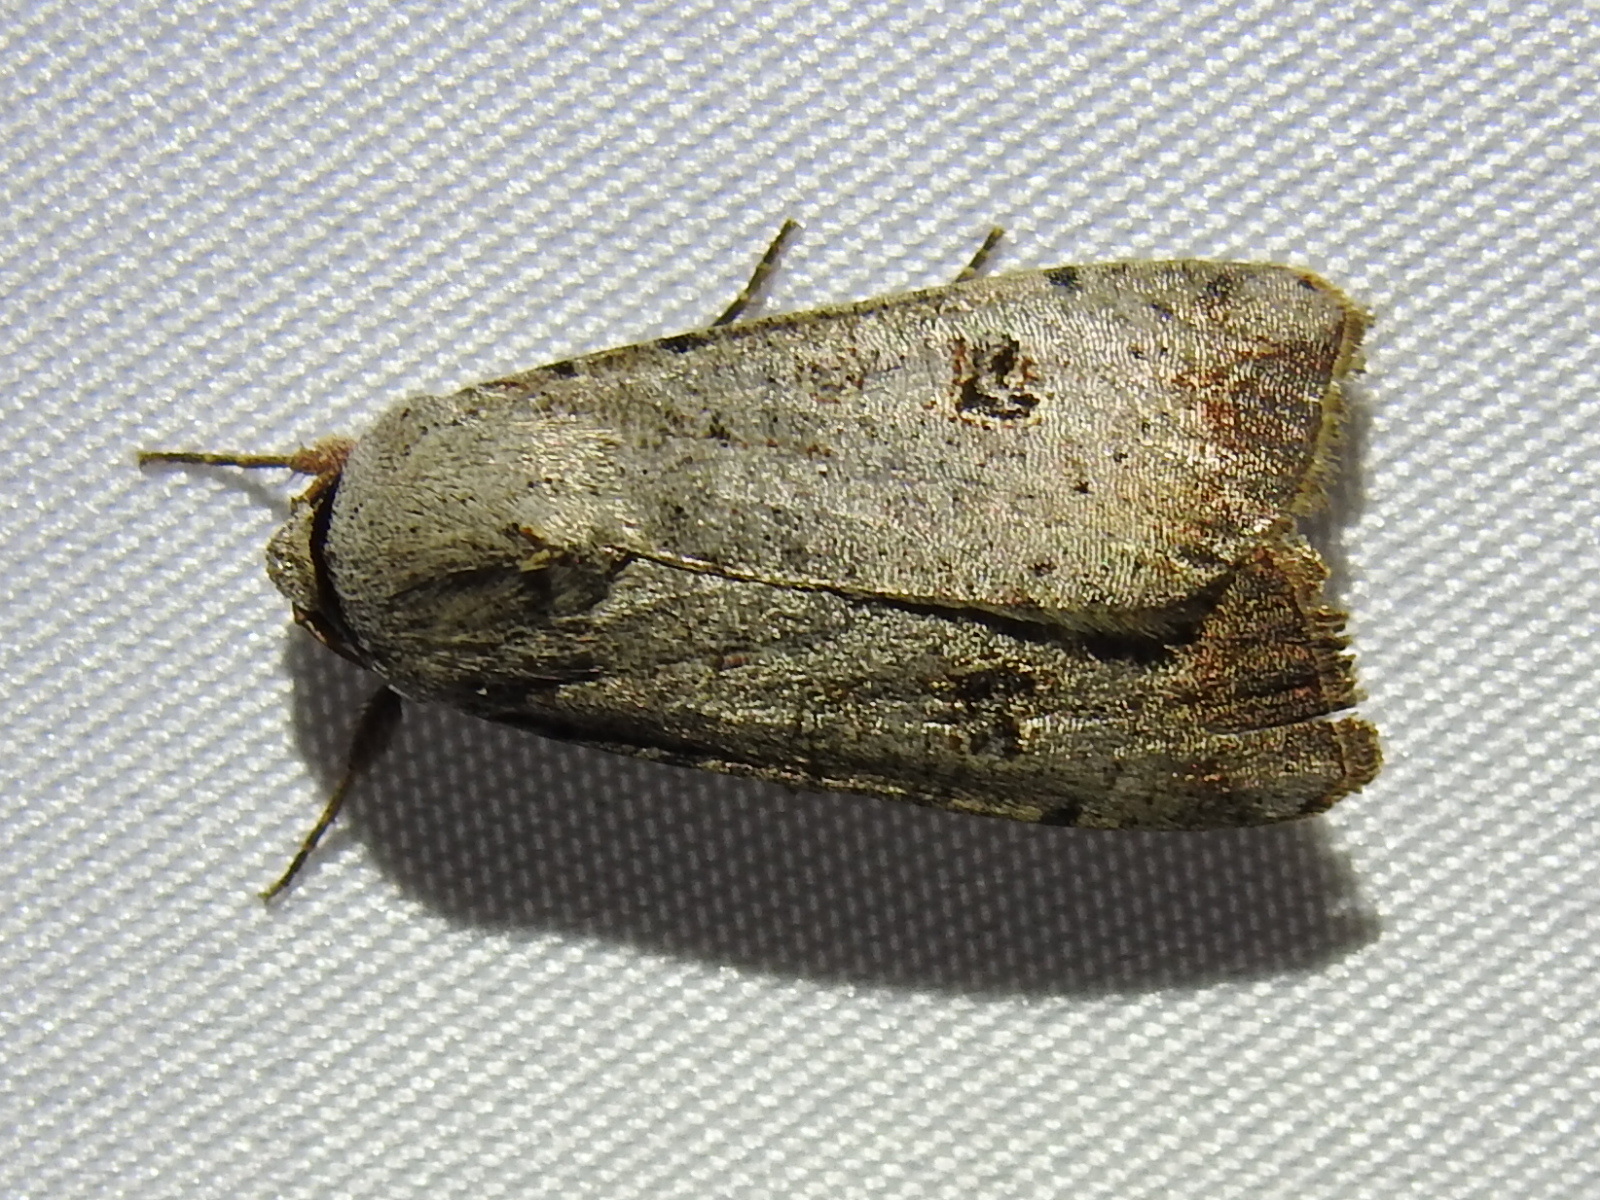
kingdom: Animalia
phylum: Arthropoda
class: Insecta
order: Lepidoptera
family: Noctuidae
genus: Anicla
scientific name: Anicla infecta
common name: Green cutworm
